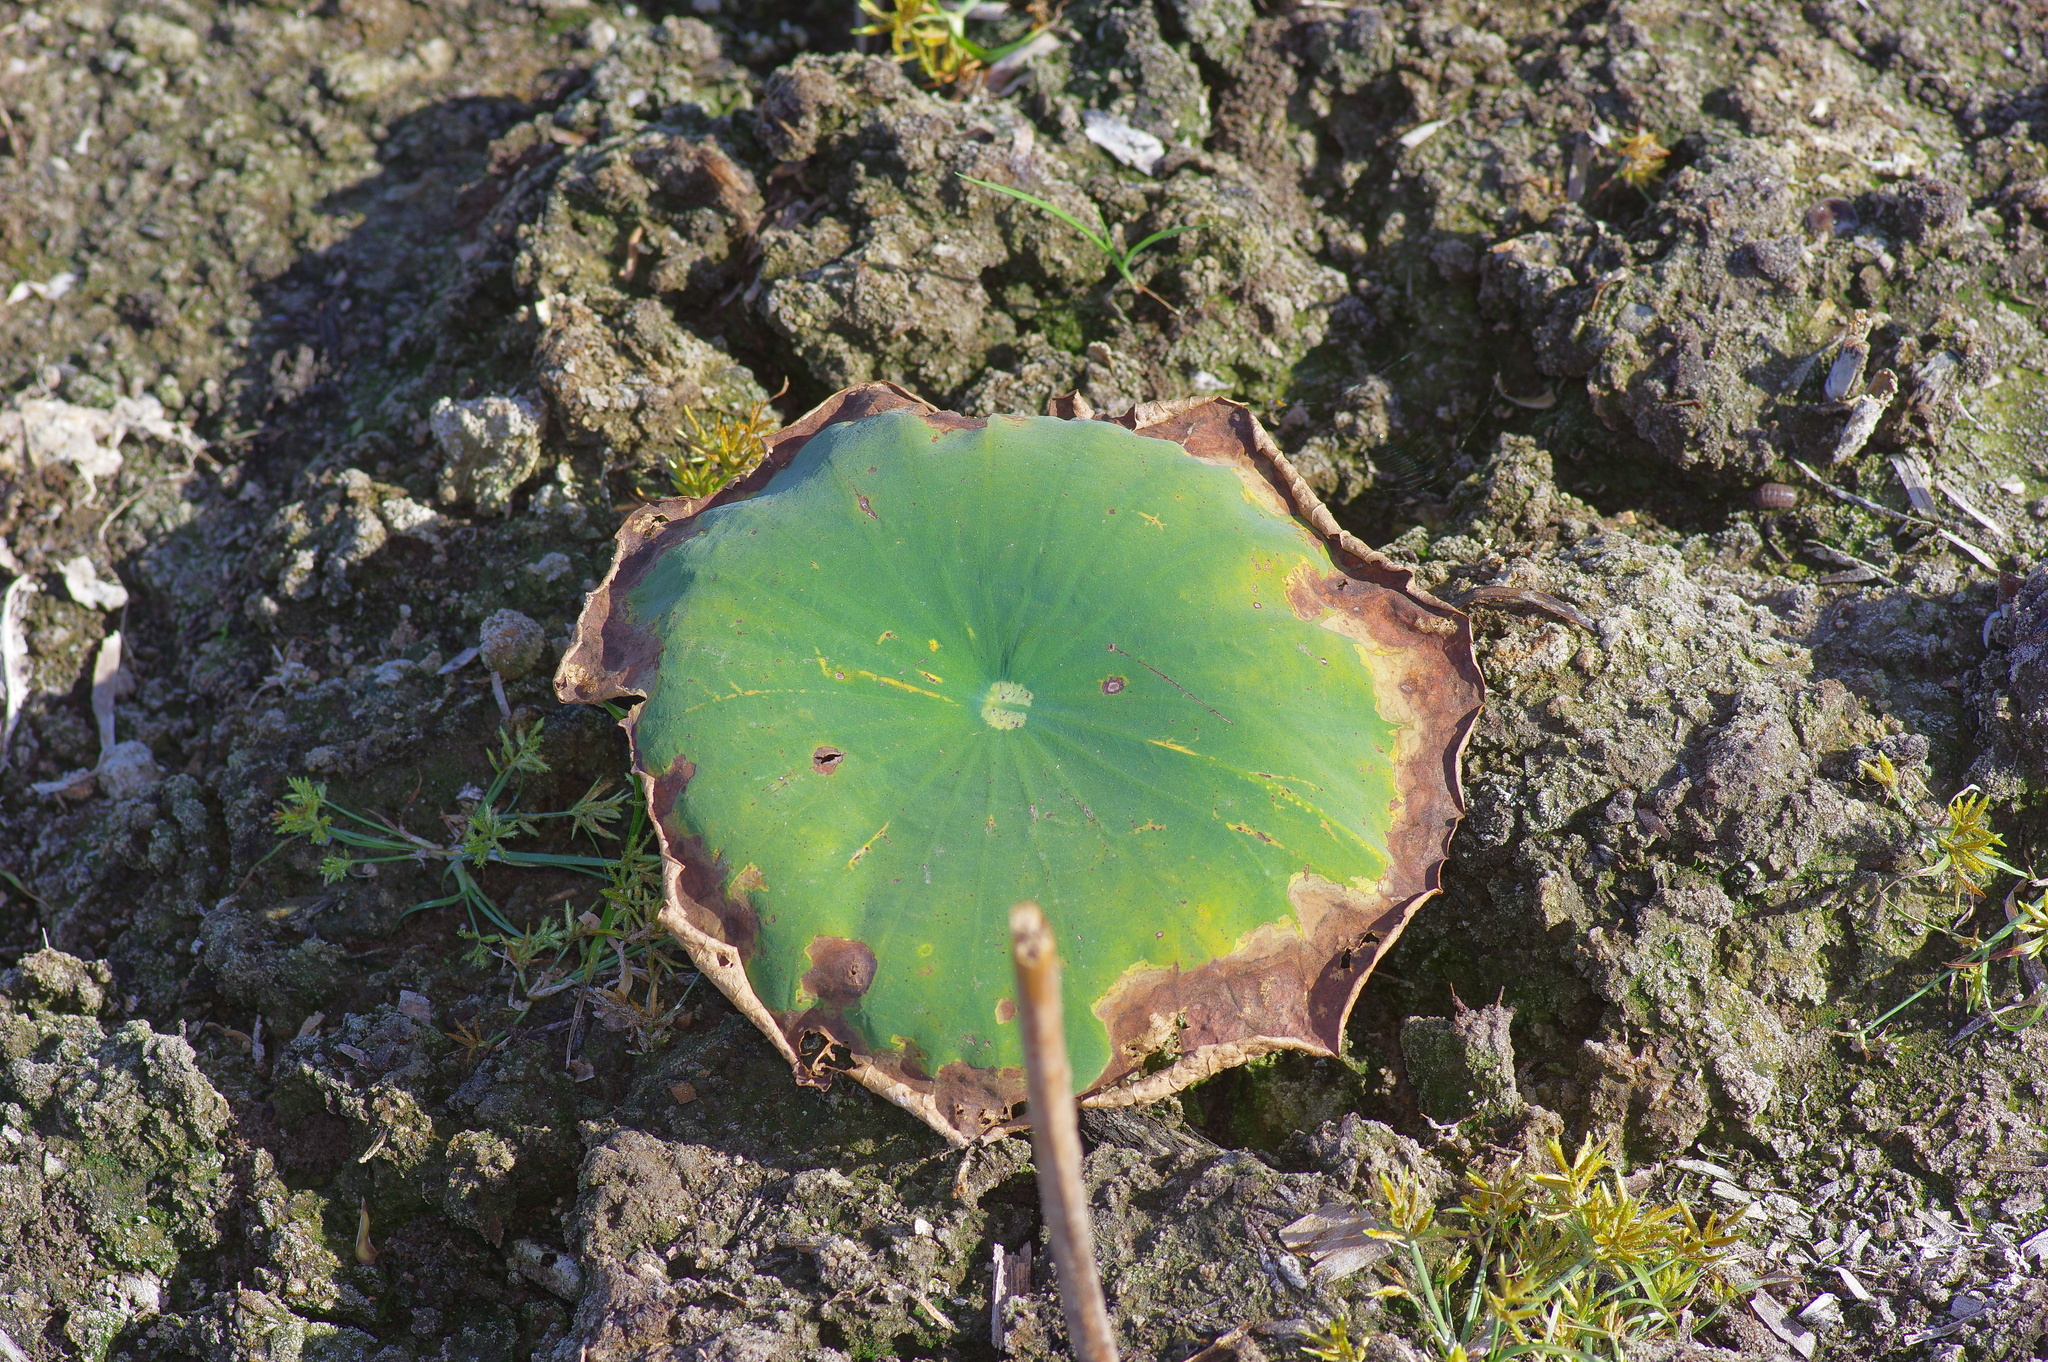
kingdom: Plantae
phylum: Tracheophyta
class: Magnoliopsida
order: Proteales
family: Nelumbonaceae
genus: Nelumbo
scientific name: Nelumbo lutea
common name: American lotus
